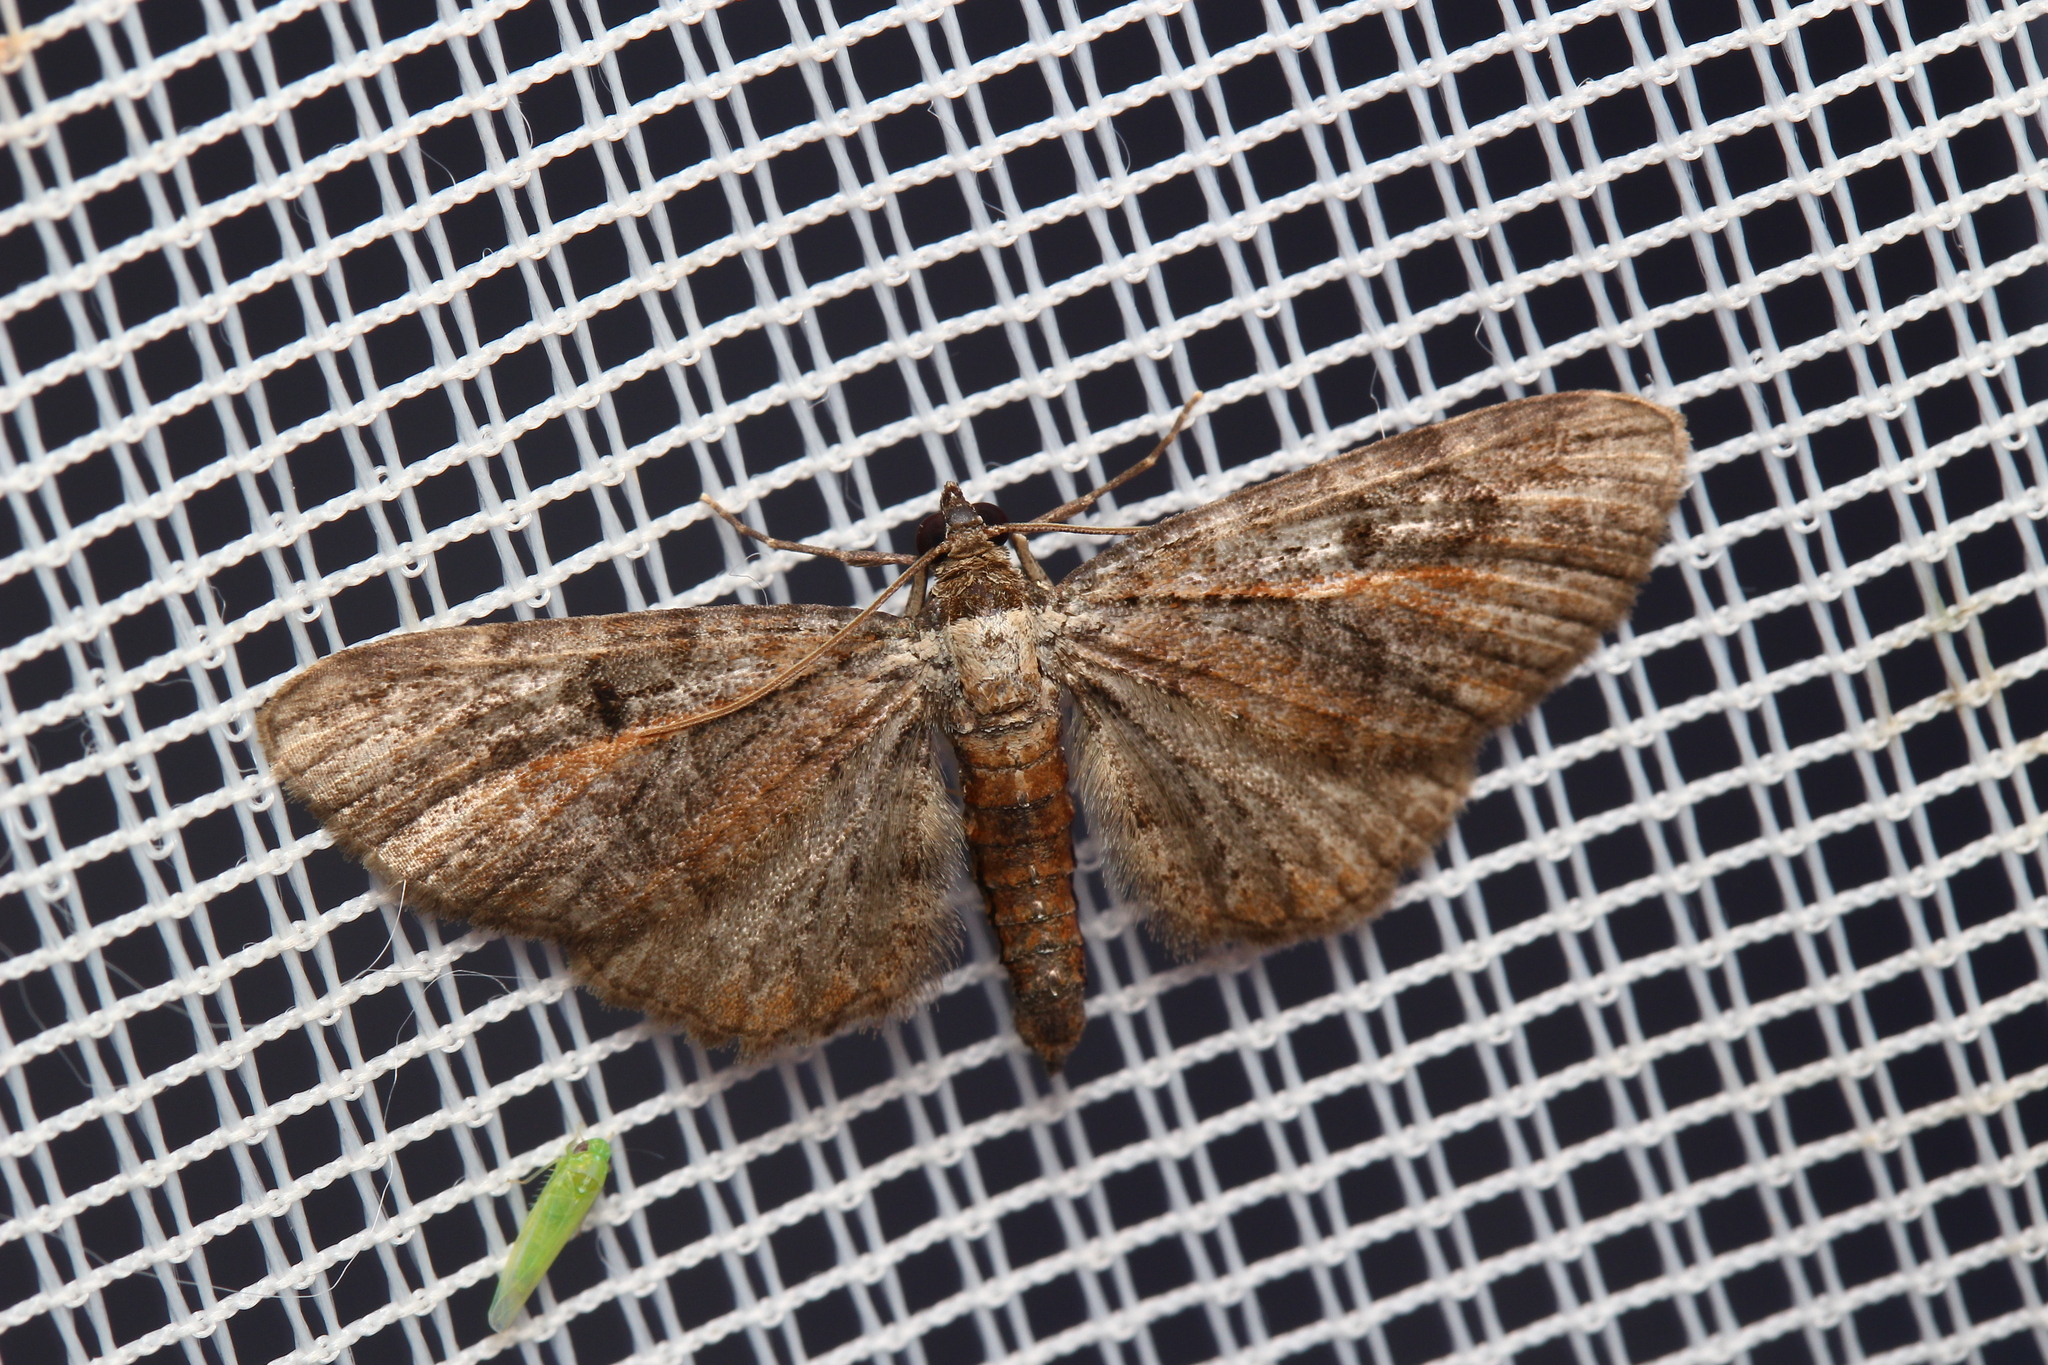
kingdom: Animalia
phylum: Arthropoda
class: Insecta
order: Lepidoptera
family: Geometridae
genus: Eupithecia
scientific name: Eupithecia icterata
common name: Tawny speckled pug
